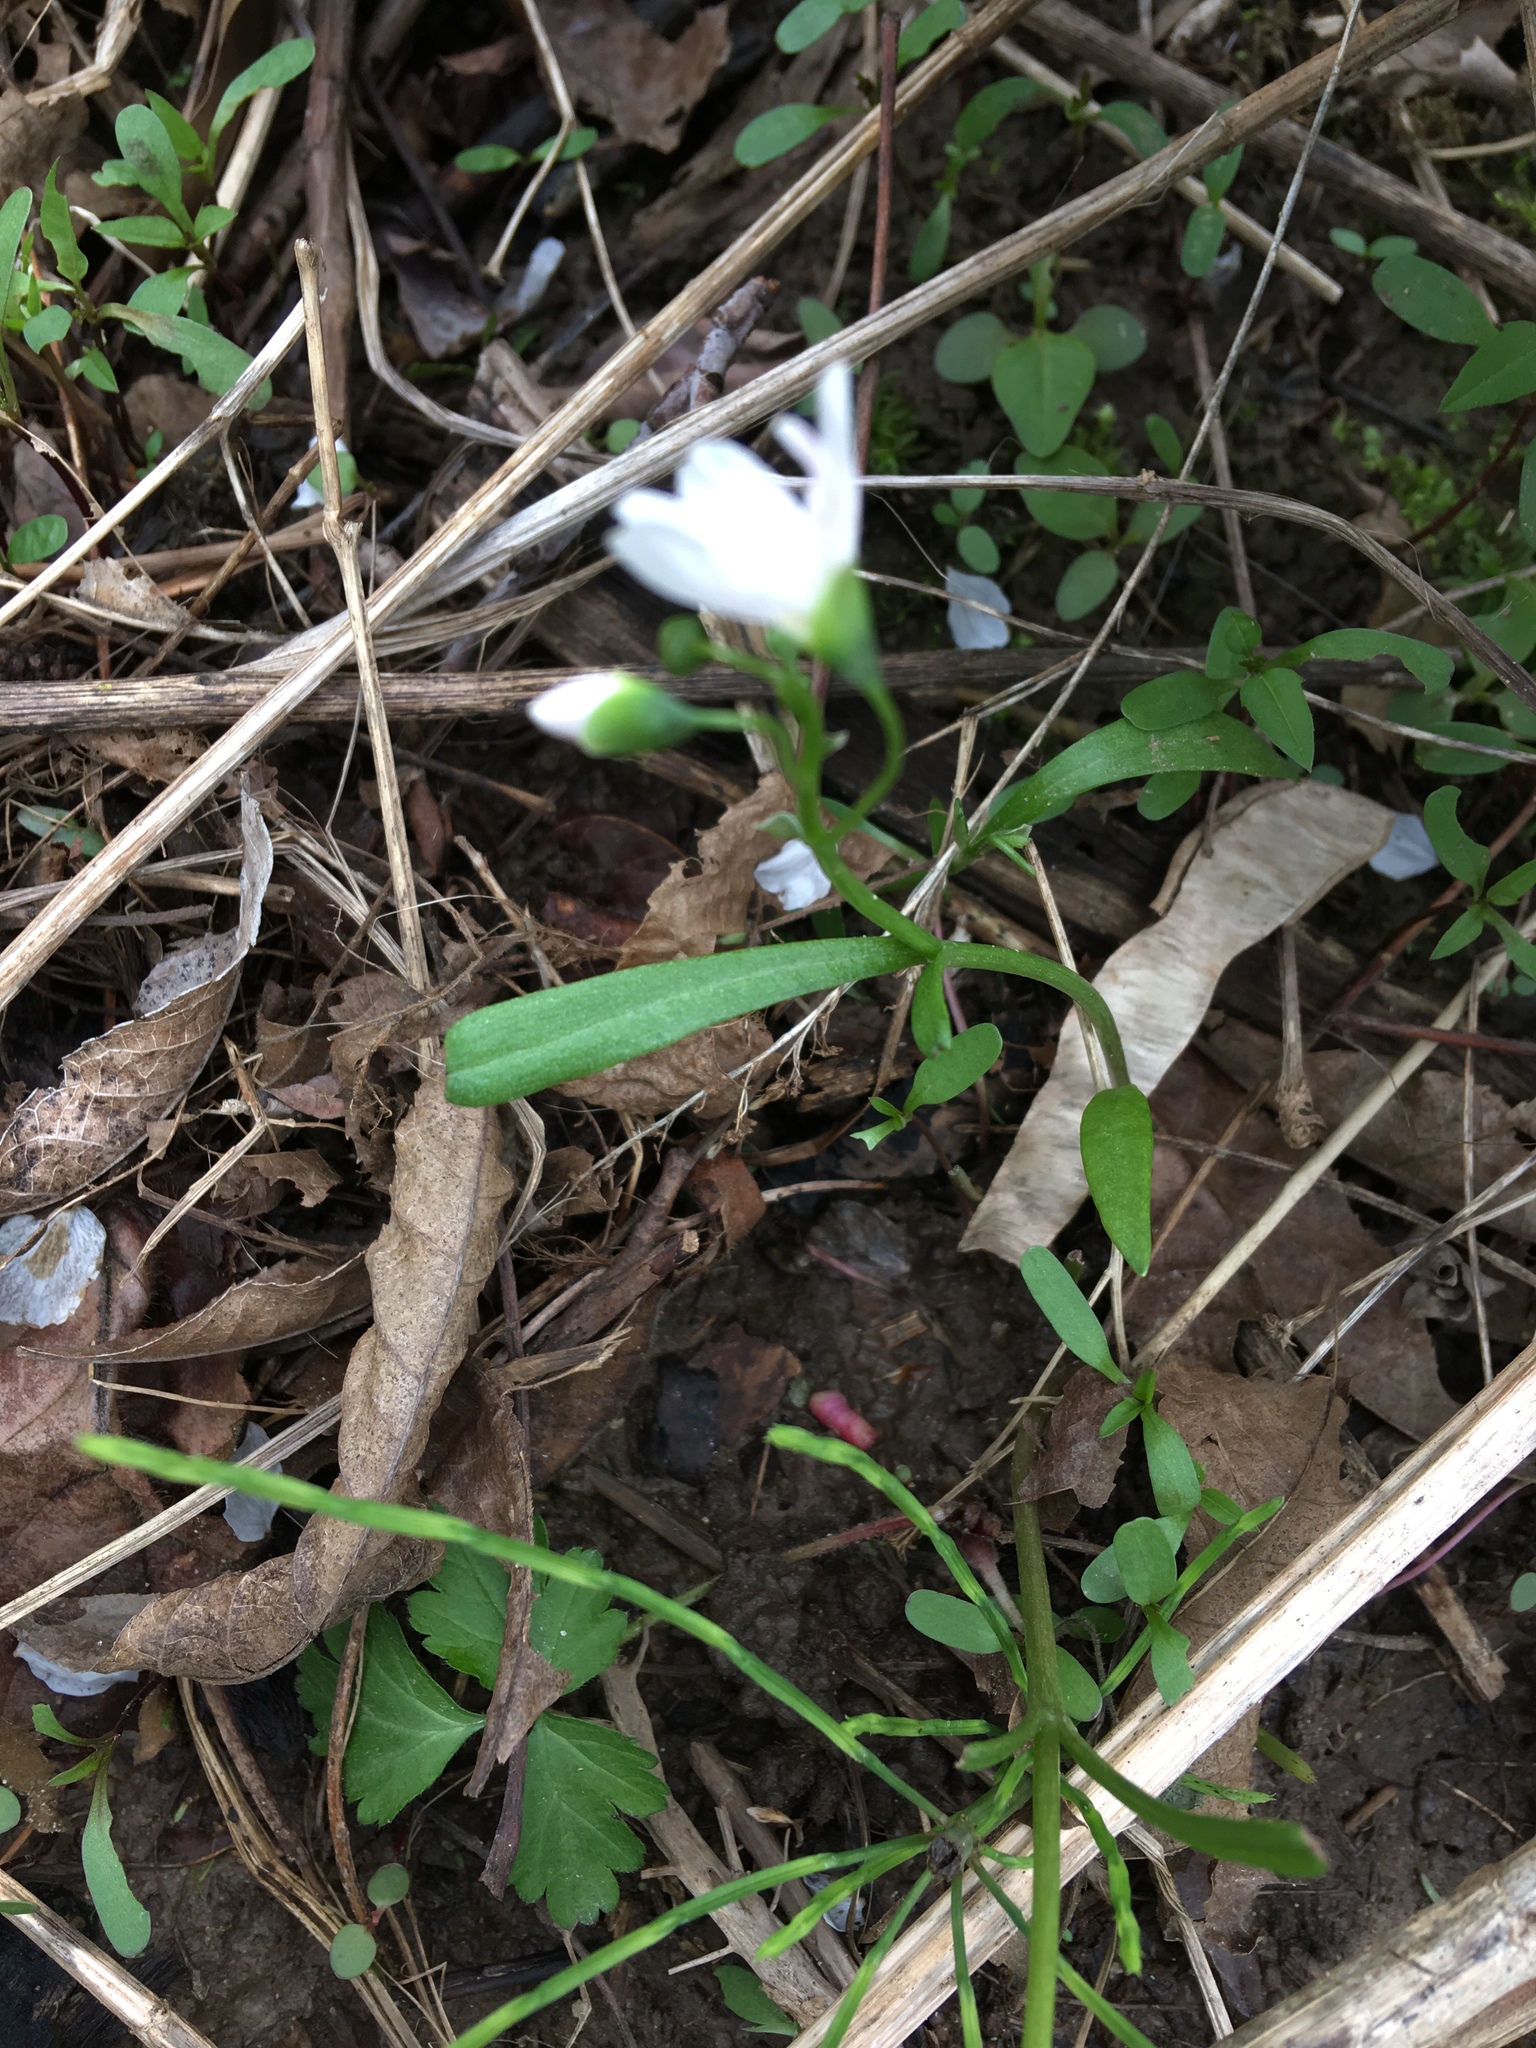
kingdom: Plantae
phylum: Tracheophyta
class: Magnoliopsida
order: Caryophyllales
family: Montiaceae
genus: Claytonia
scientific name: Claytonia virginica
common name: Virginia springbeauty
